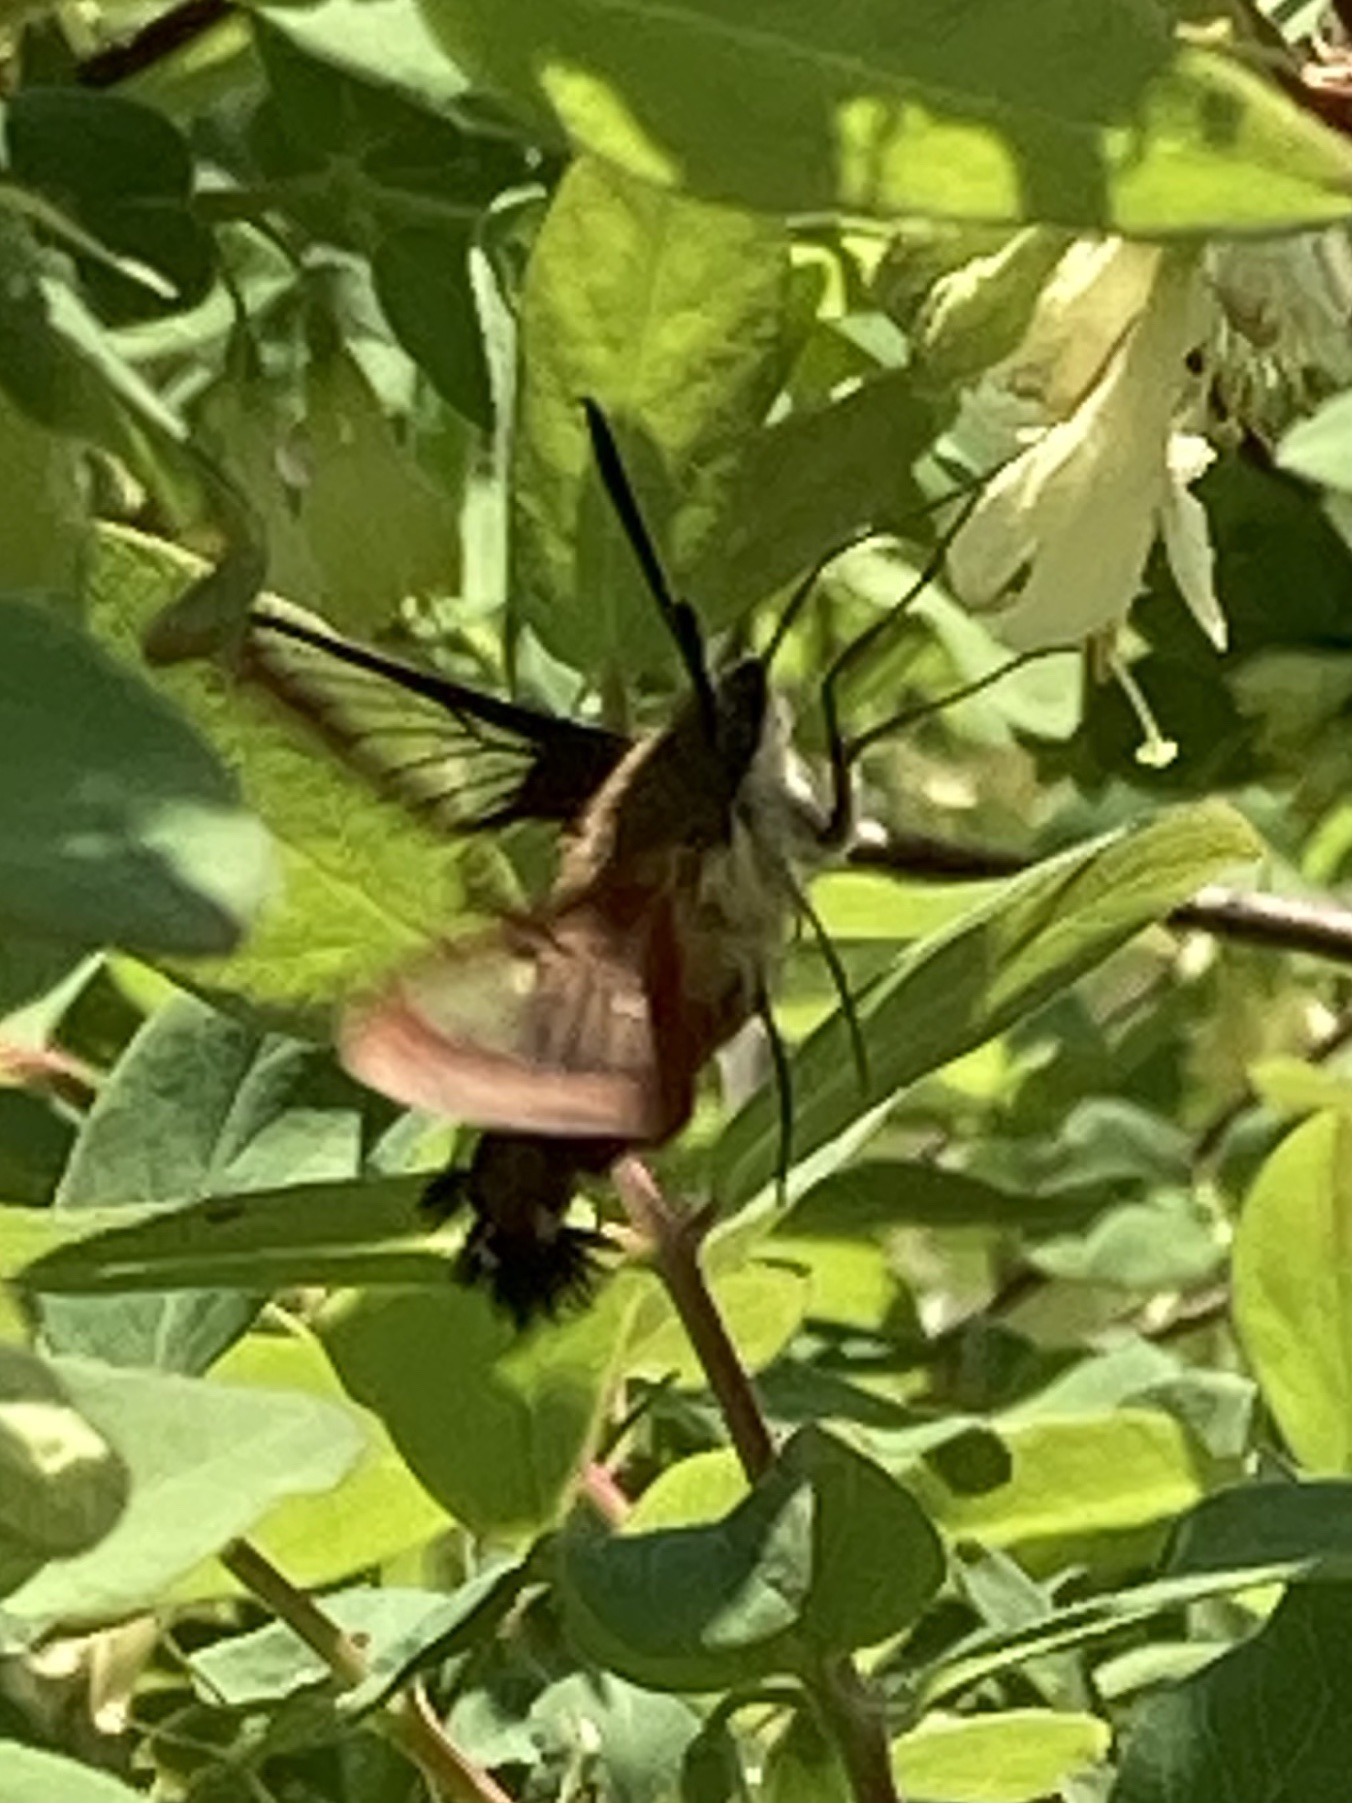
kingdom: Animalia
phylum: Arthropoda
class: Insecta
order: Lepidoptera
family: Sphingidae
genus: Hemaris
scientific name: Hemaris thysbe
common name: Common clear-wing
